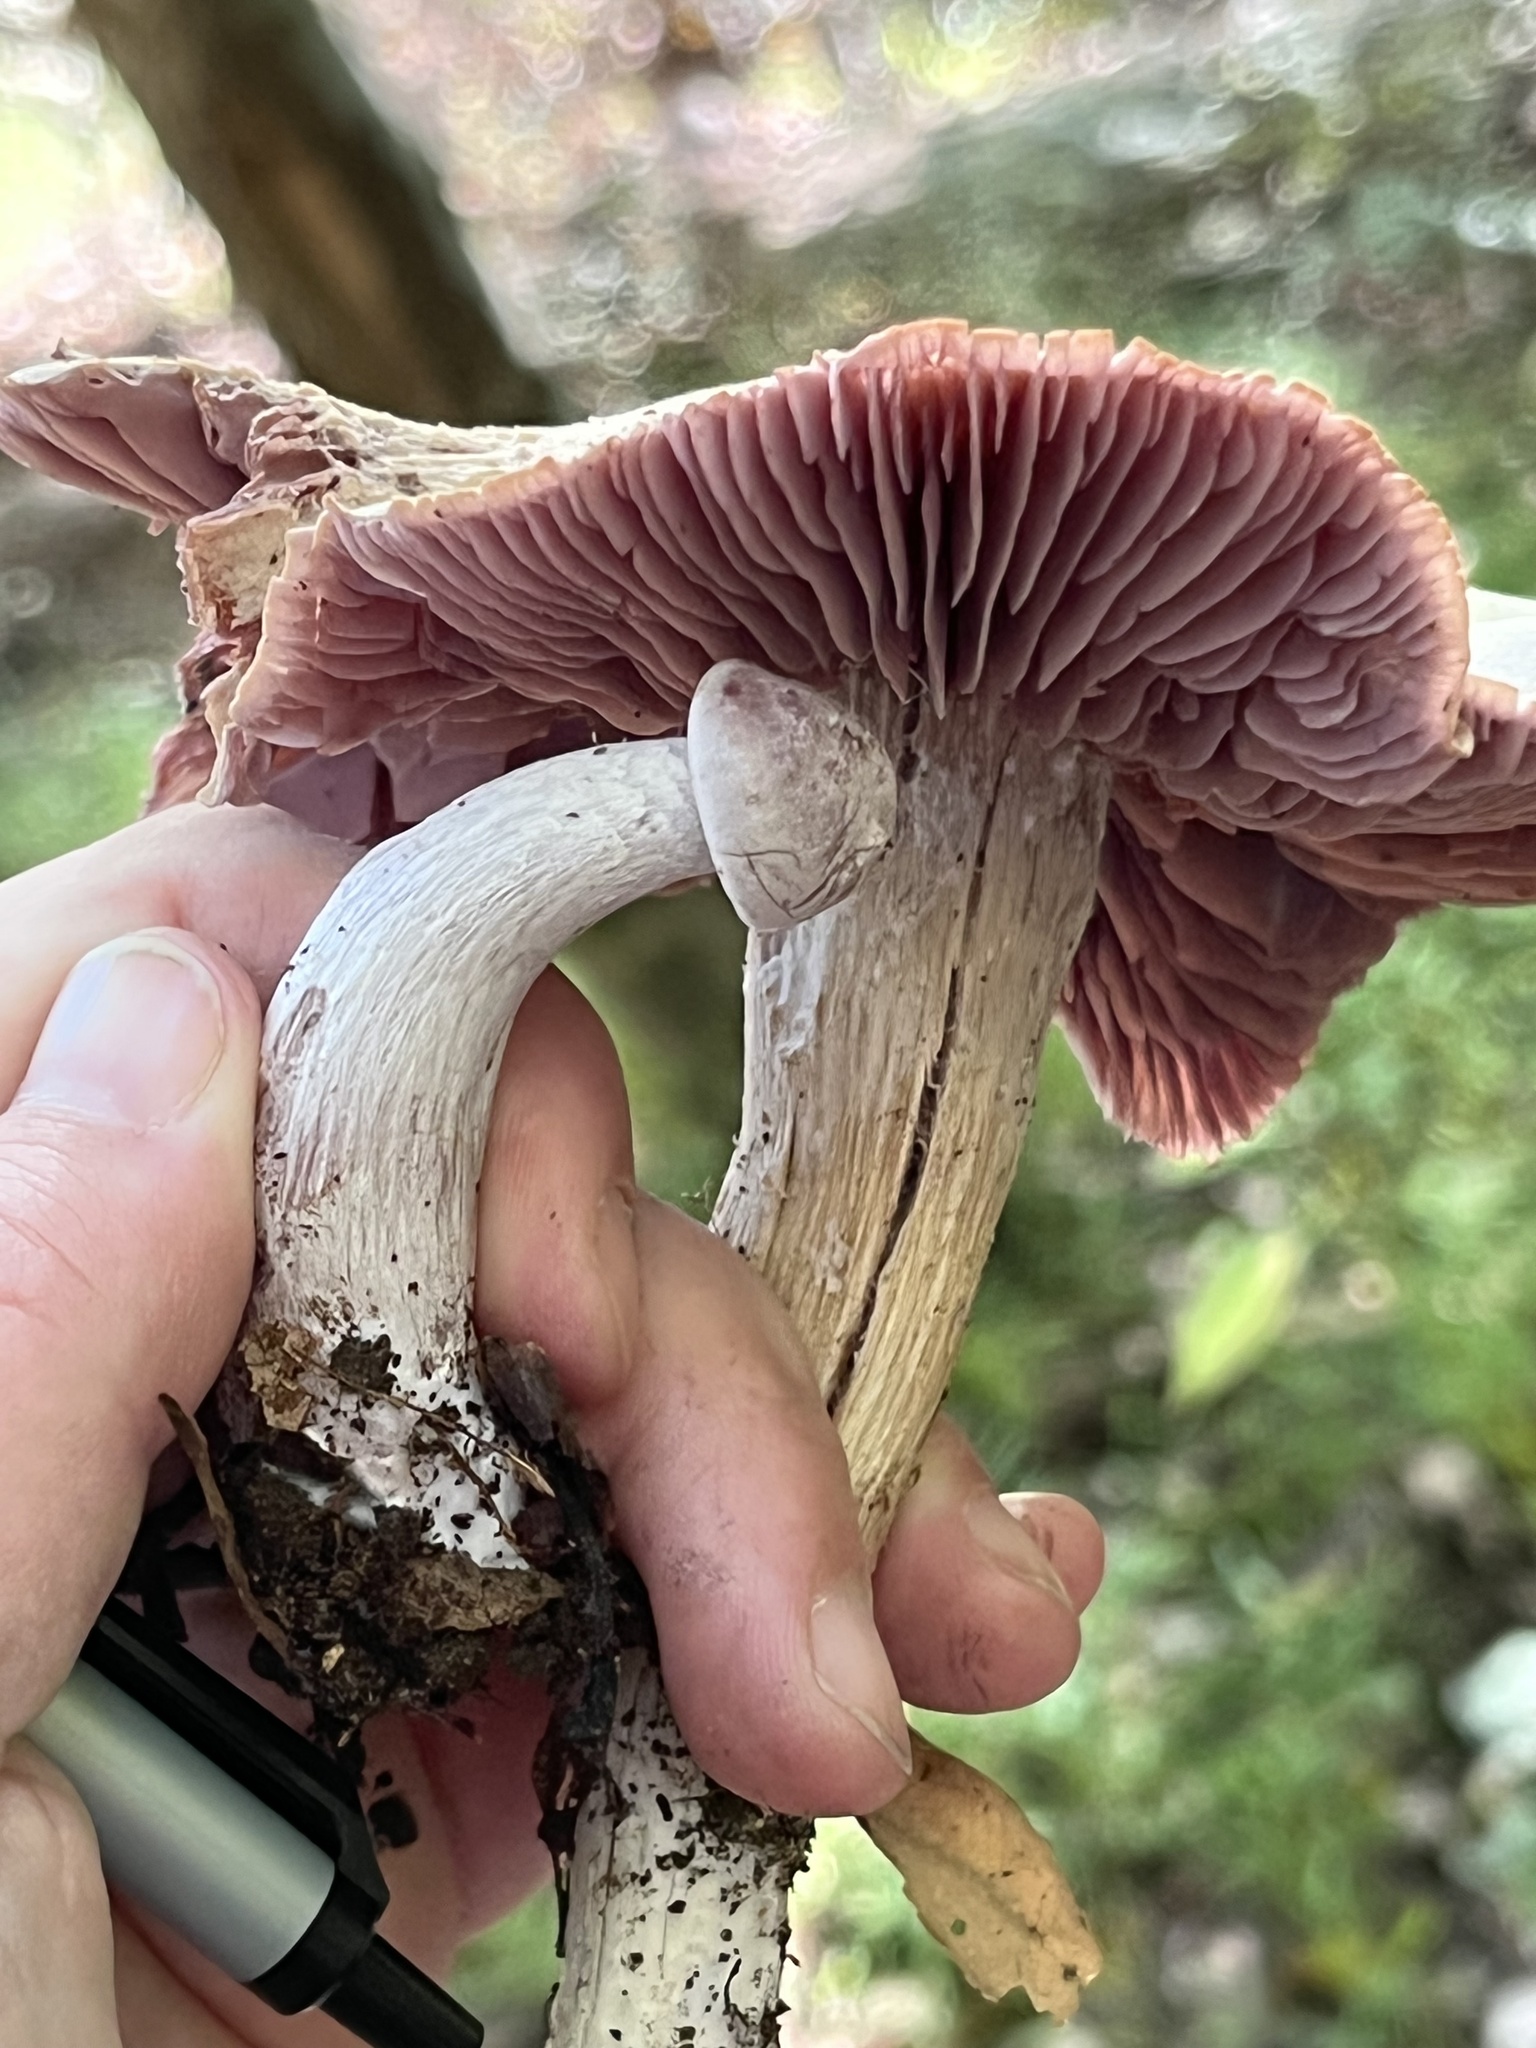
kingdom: Fungi
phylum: Basidiomycota
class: Agaricomycetes
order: Agaricales
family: Hydnangiaceae
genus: Laccaria
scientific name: Laccaria ochropurpurea
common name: Purple laccaria
